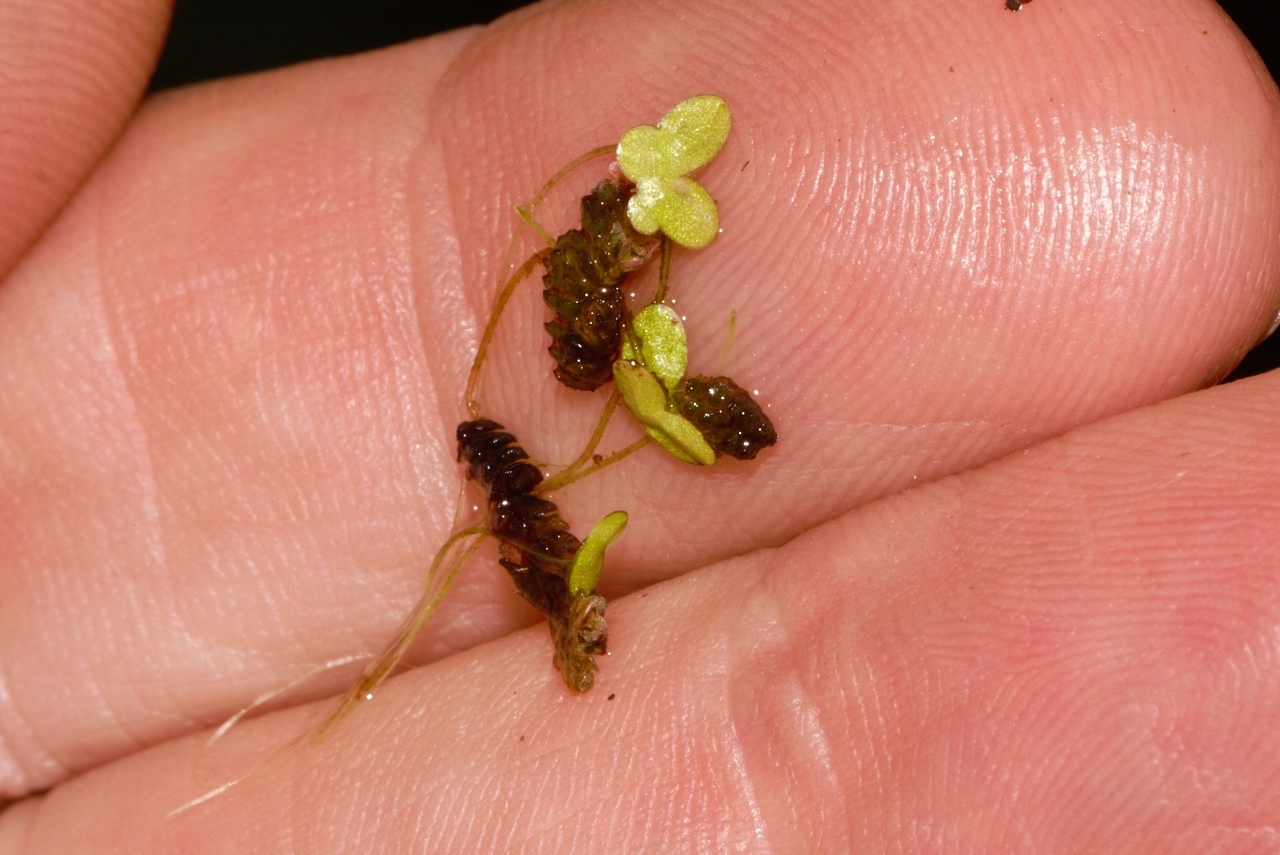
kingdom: Plantae
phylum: Tracheophyta
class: Liliopsida
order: Alismatales
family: Araceae
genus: Lemna
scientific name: Lemna aequinoctialis
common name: Duckweed
